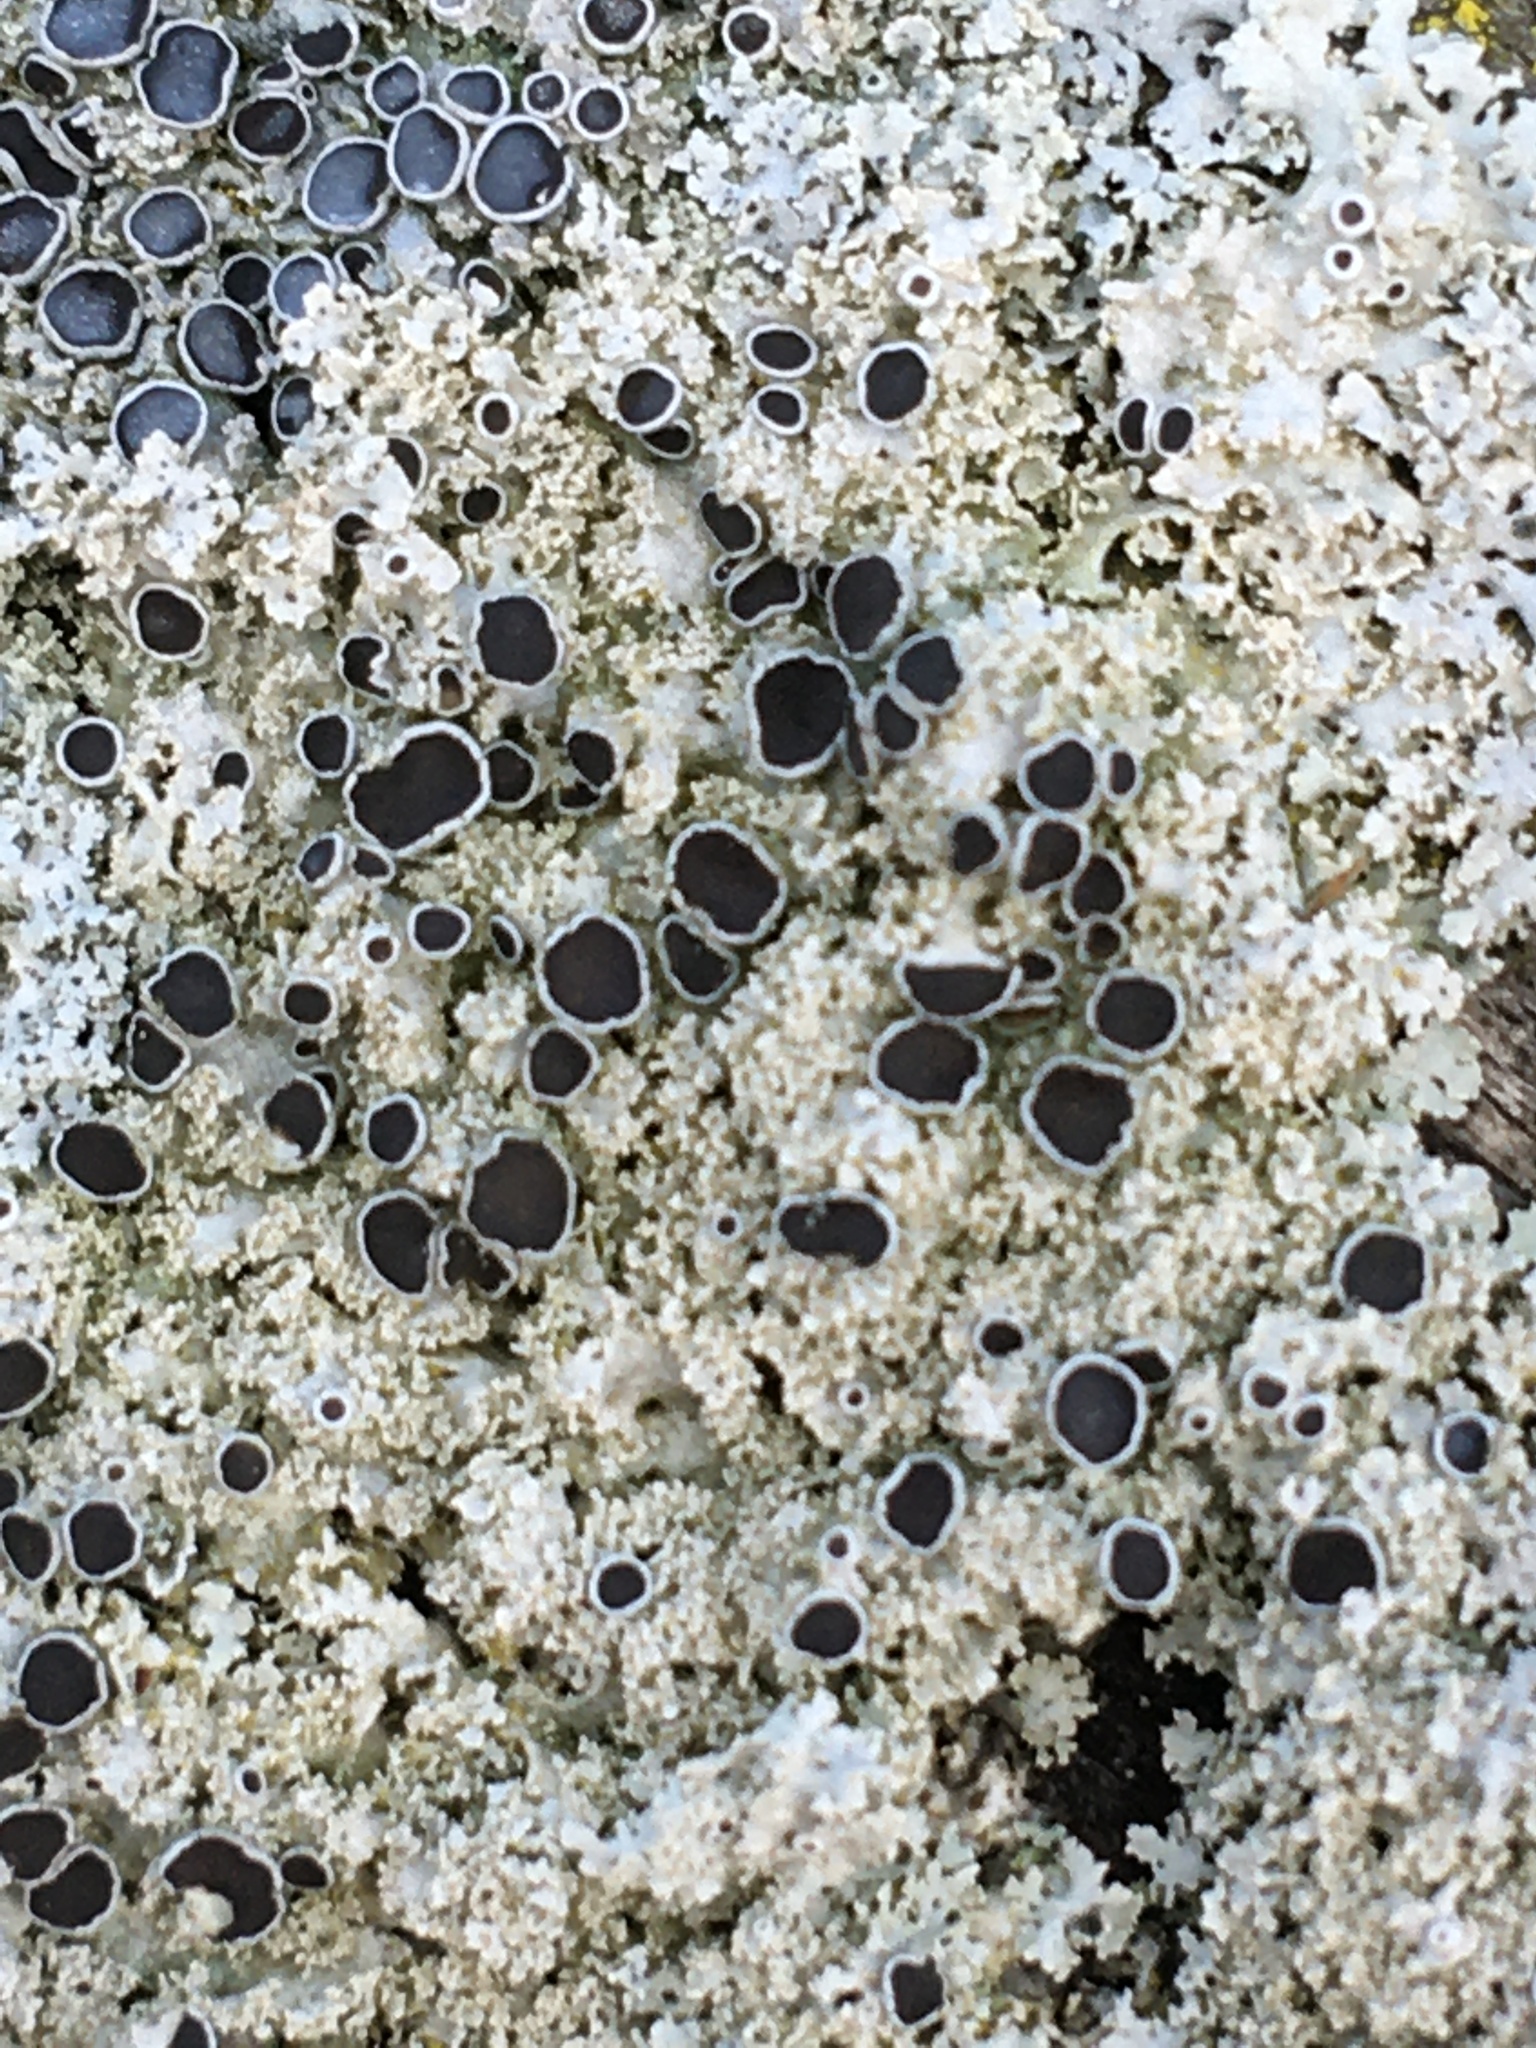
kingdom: Fungi
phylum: Ascomycota
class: Lecanoromycetes
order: Caliciales
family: Physciaceae
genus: Physcia
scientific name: Physcia millegrana
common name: Rosette lichen
